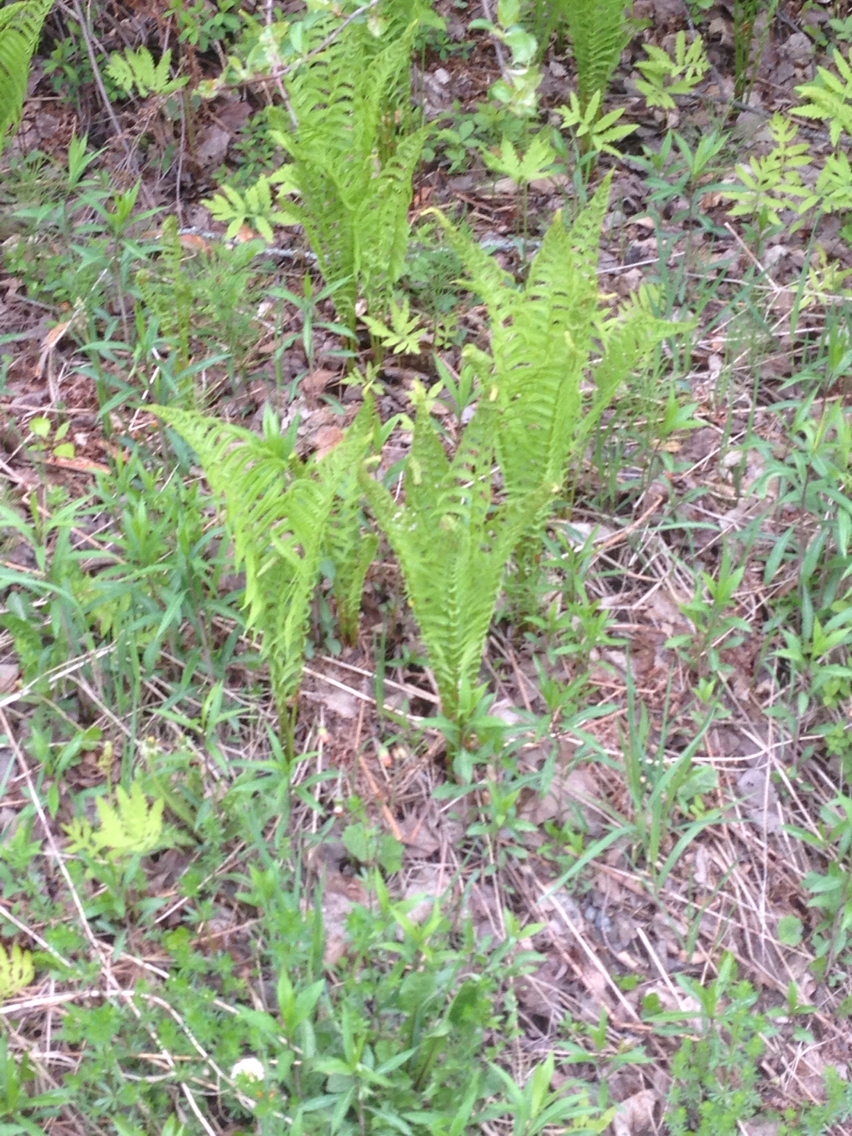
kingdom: Plantae
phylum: Tracheophyta
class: Polypodiopsida
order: Polypodiales
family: Onocleaceae
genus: Matteuccia
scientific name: Matteuccia struthiopteris
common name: Ostrich fern
